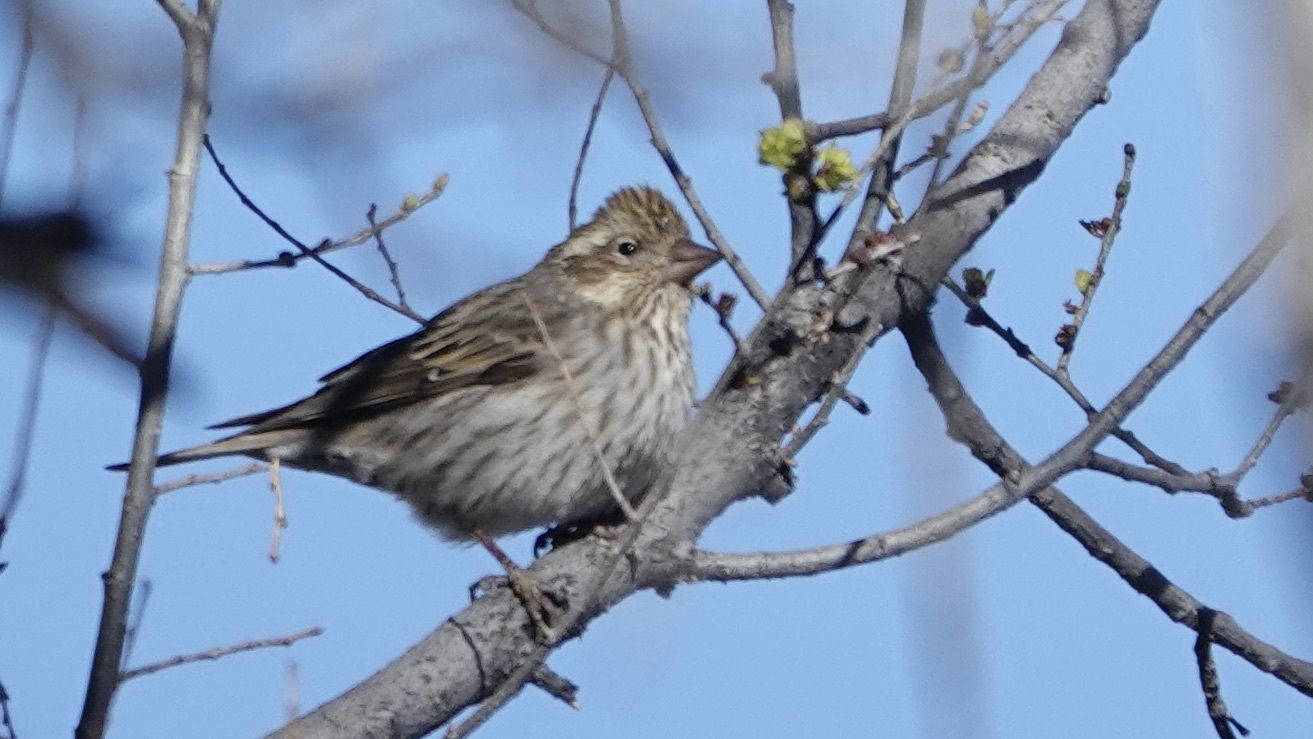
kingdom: Animalia
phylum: Chordata
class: Aves
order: Passeriformes
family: Fringillidae
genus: Haemorhous
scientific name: Haemorhous cassinii
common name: Cassin's finch
